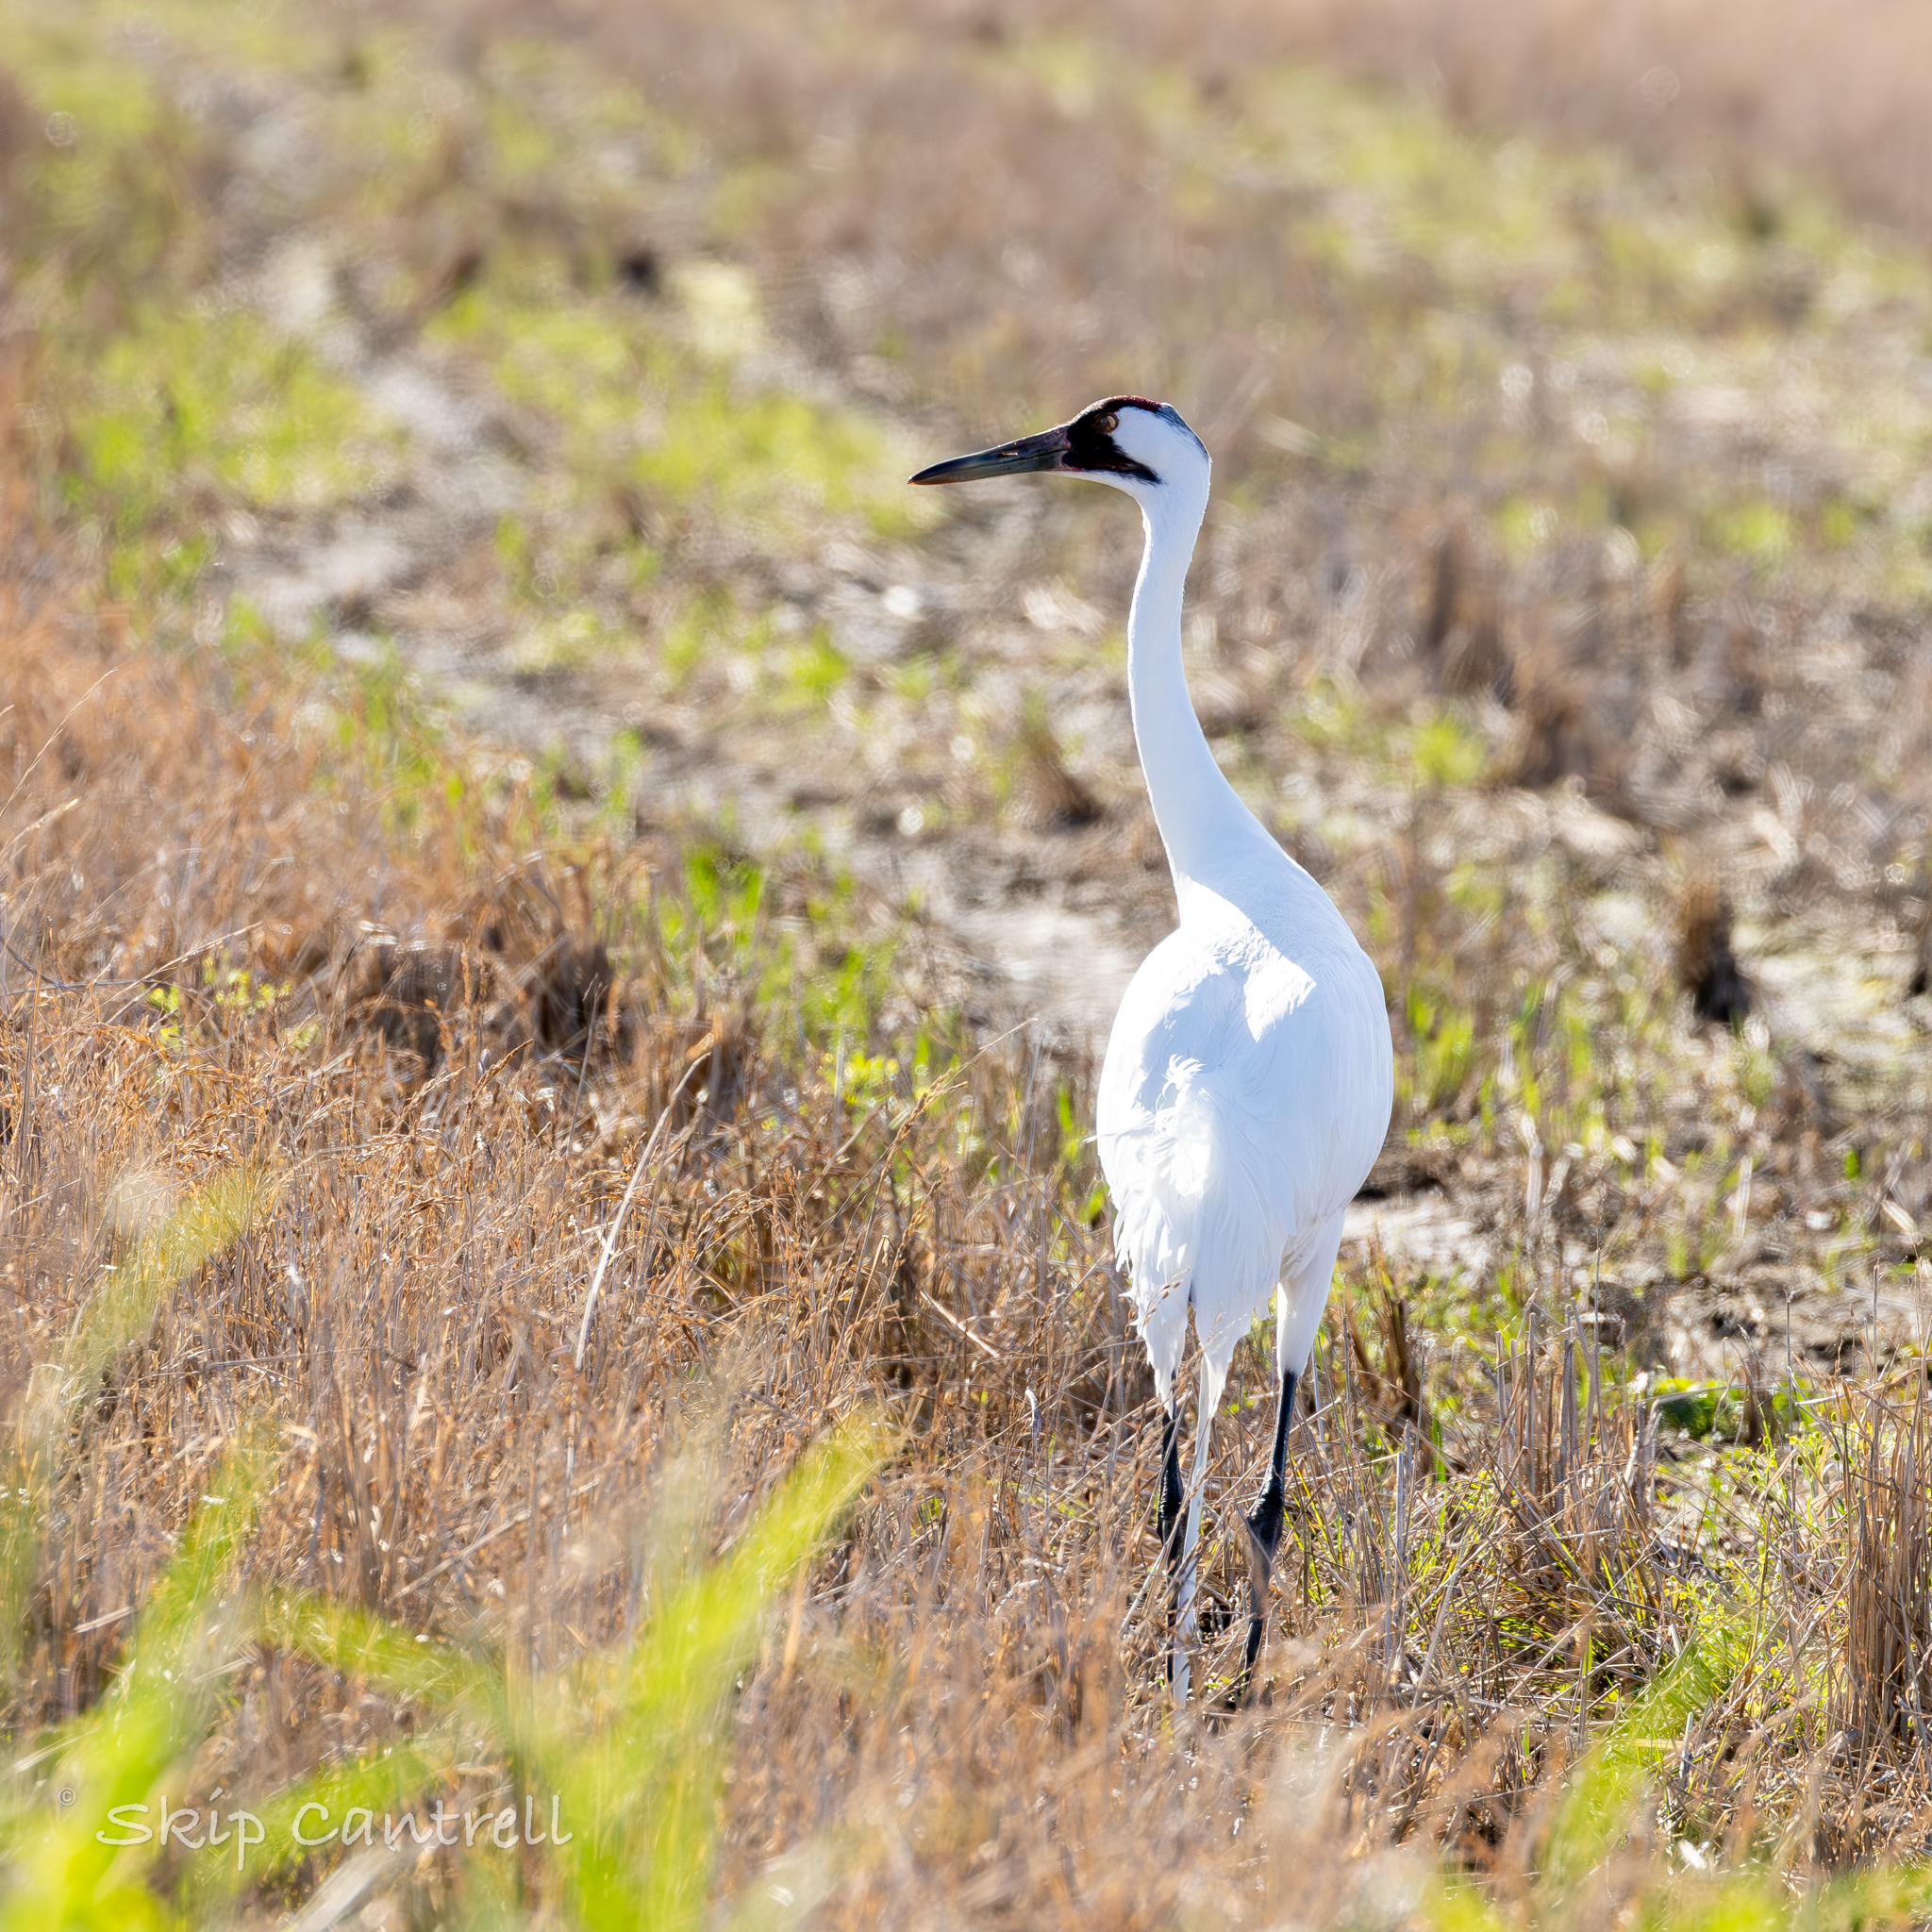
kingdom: Animalia
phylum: Chordata
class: Aves
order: Gruiformes
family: Gruidae
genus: Grus
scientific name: Grus americana
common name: Whooping crane
